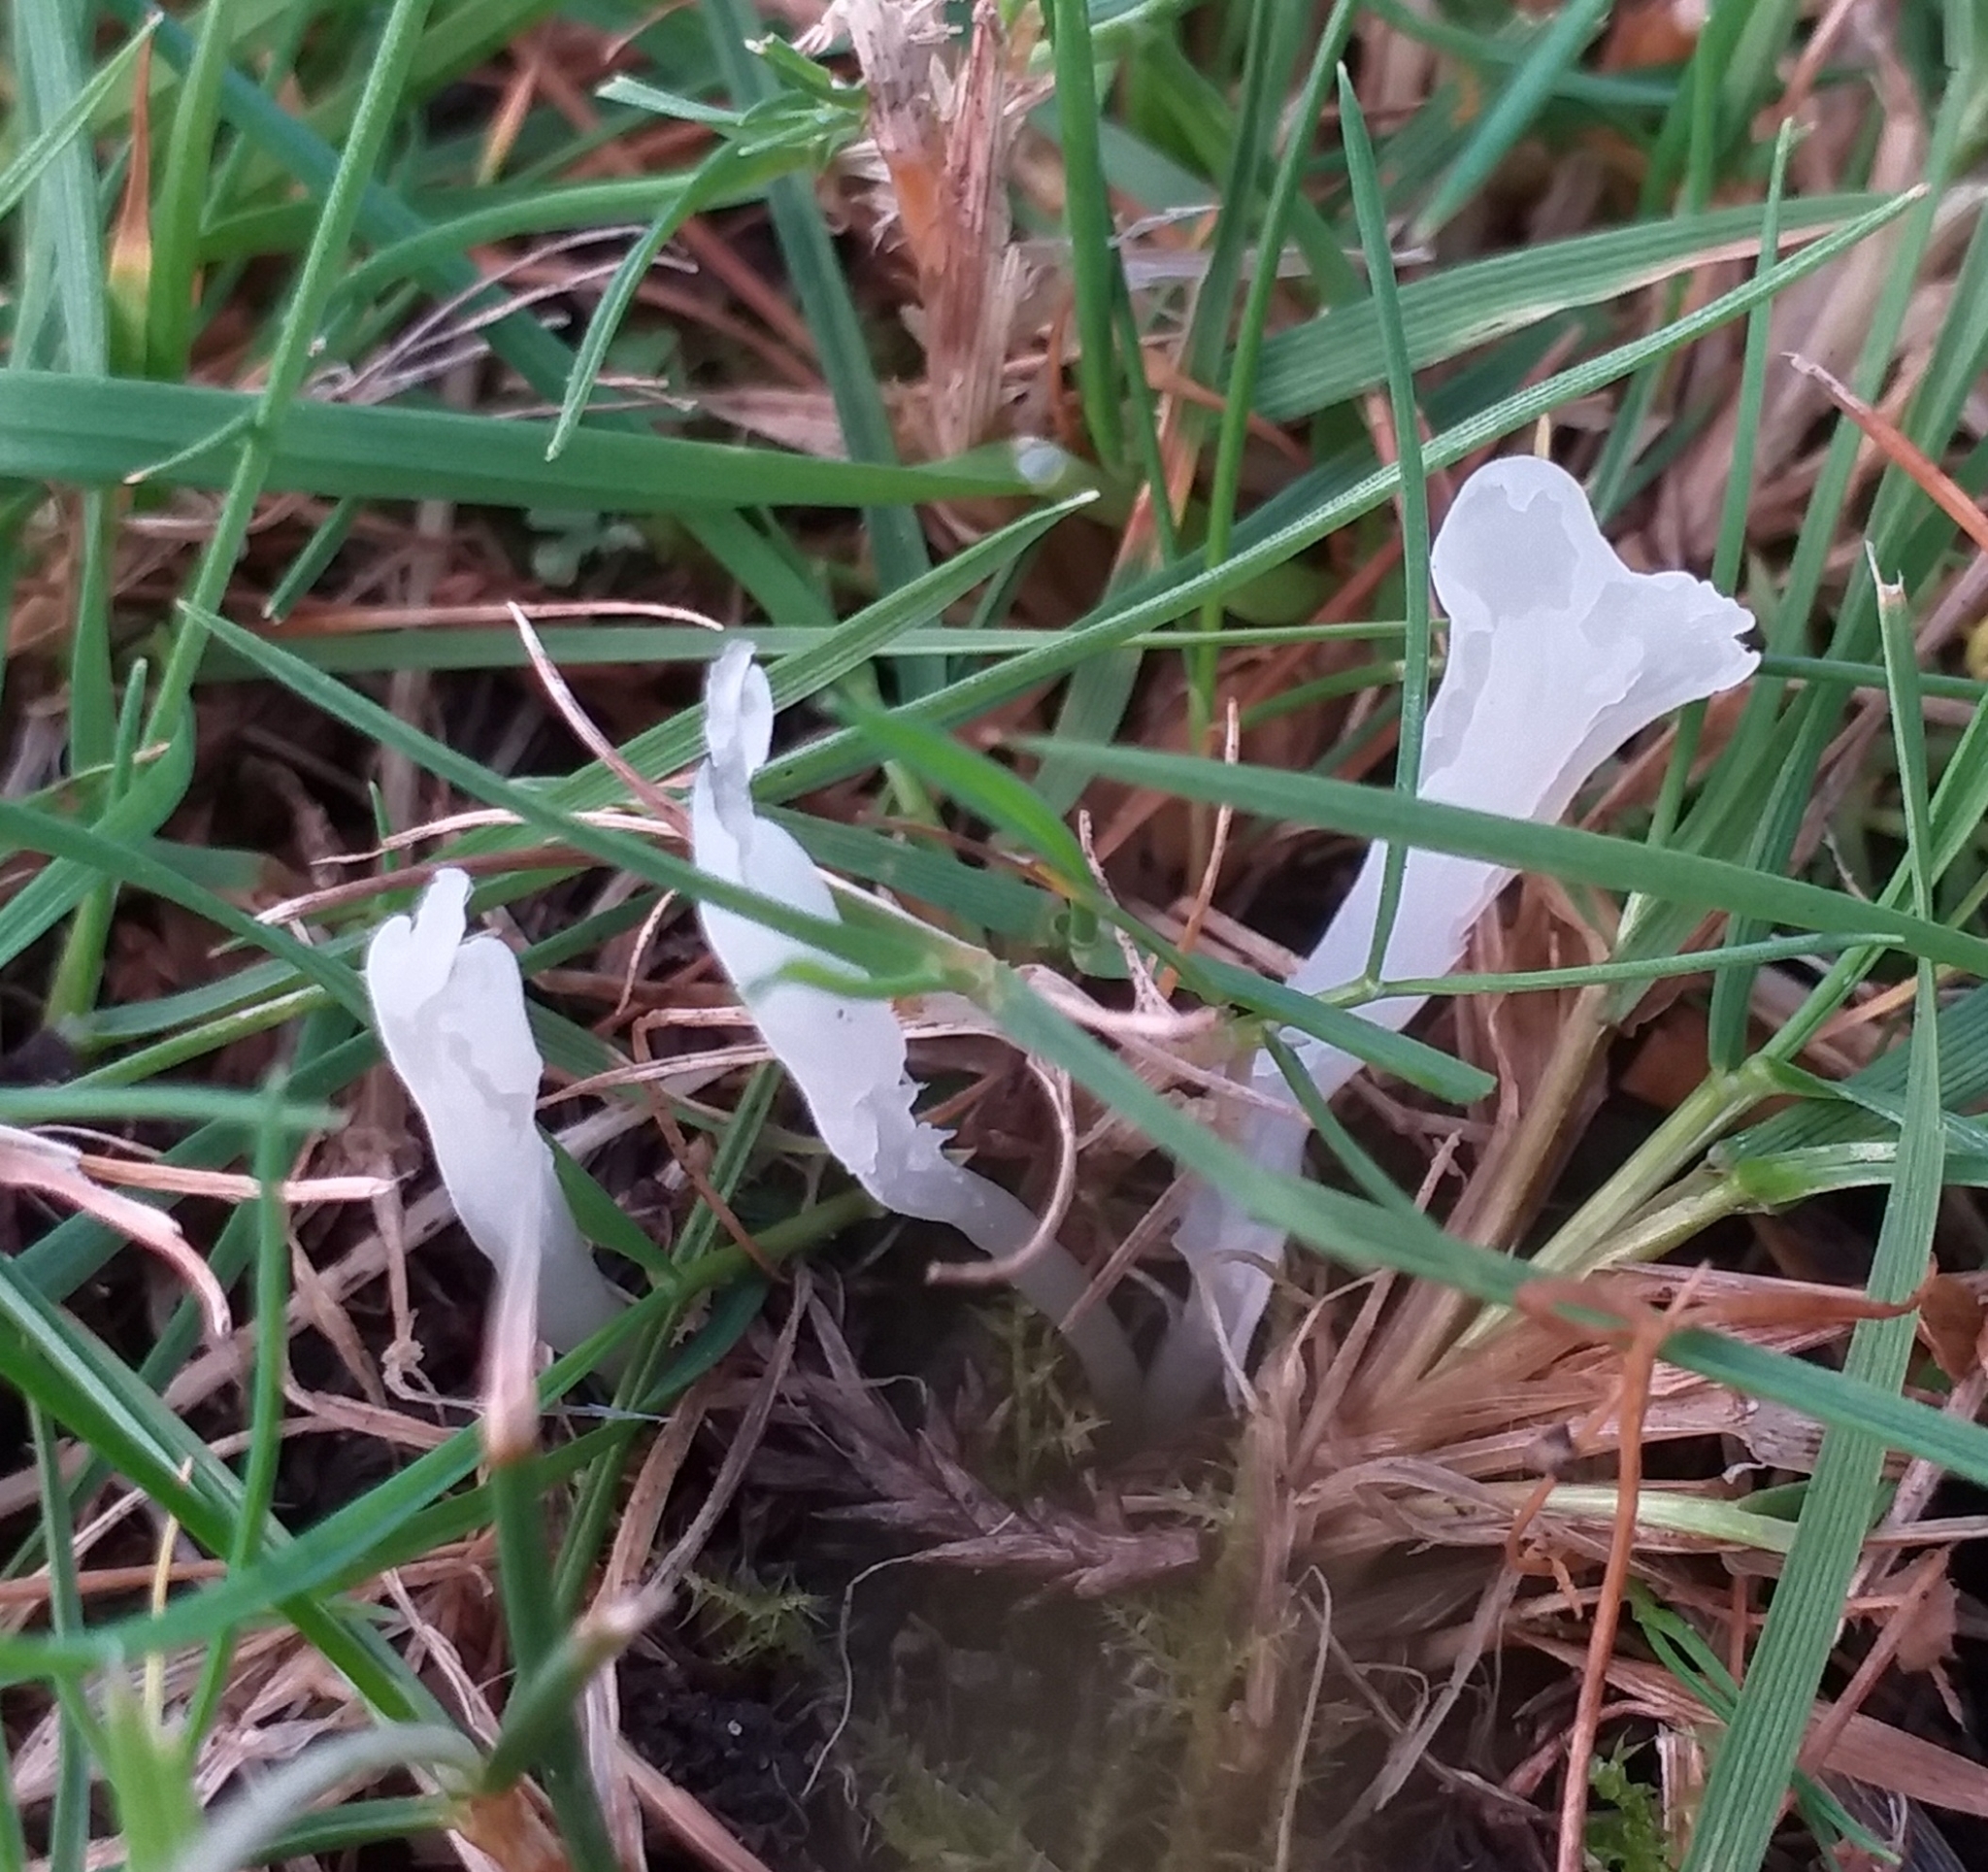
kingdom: Fungi
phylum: Basidiomycota
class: Agaricomycetes
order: Agaricales
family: Clavariaceae
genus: Clavaria
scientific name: Clavaria acuta
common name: Pointed club
